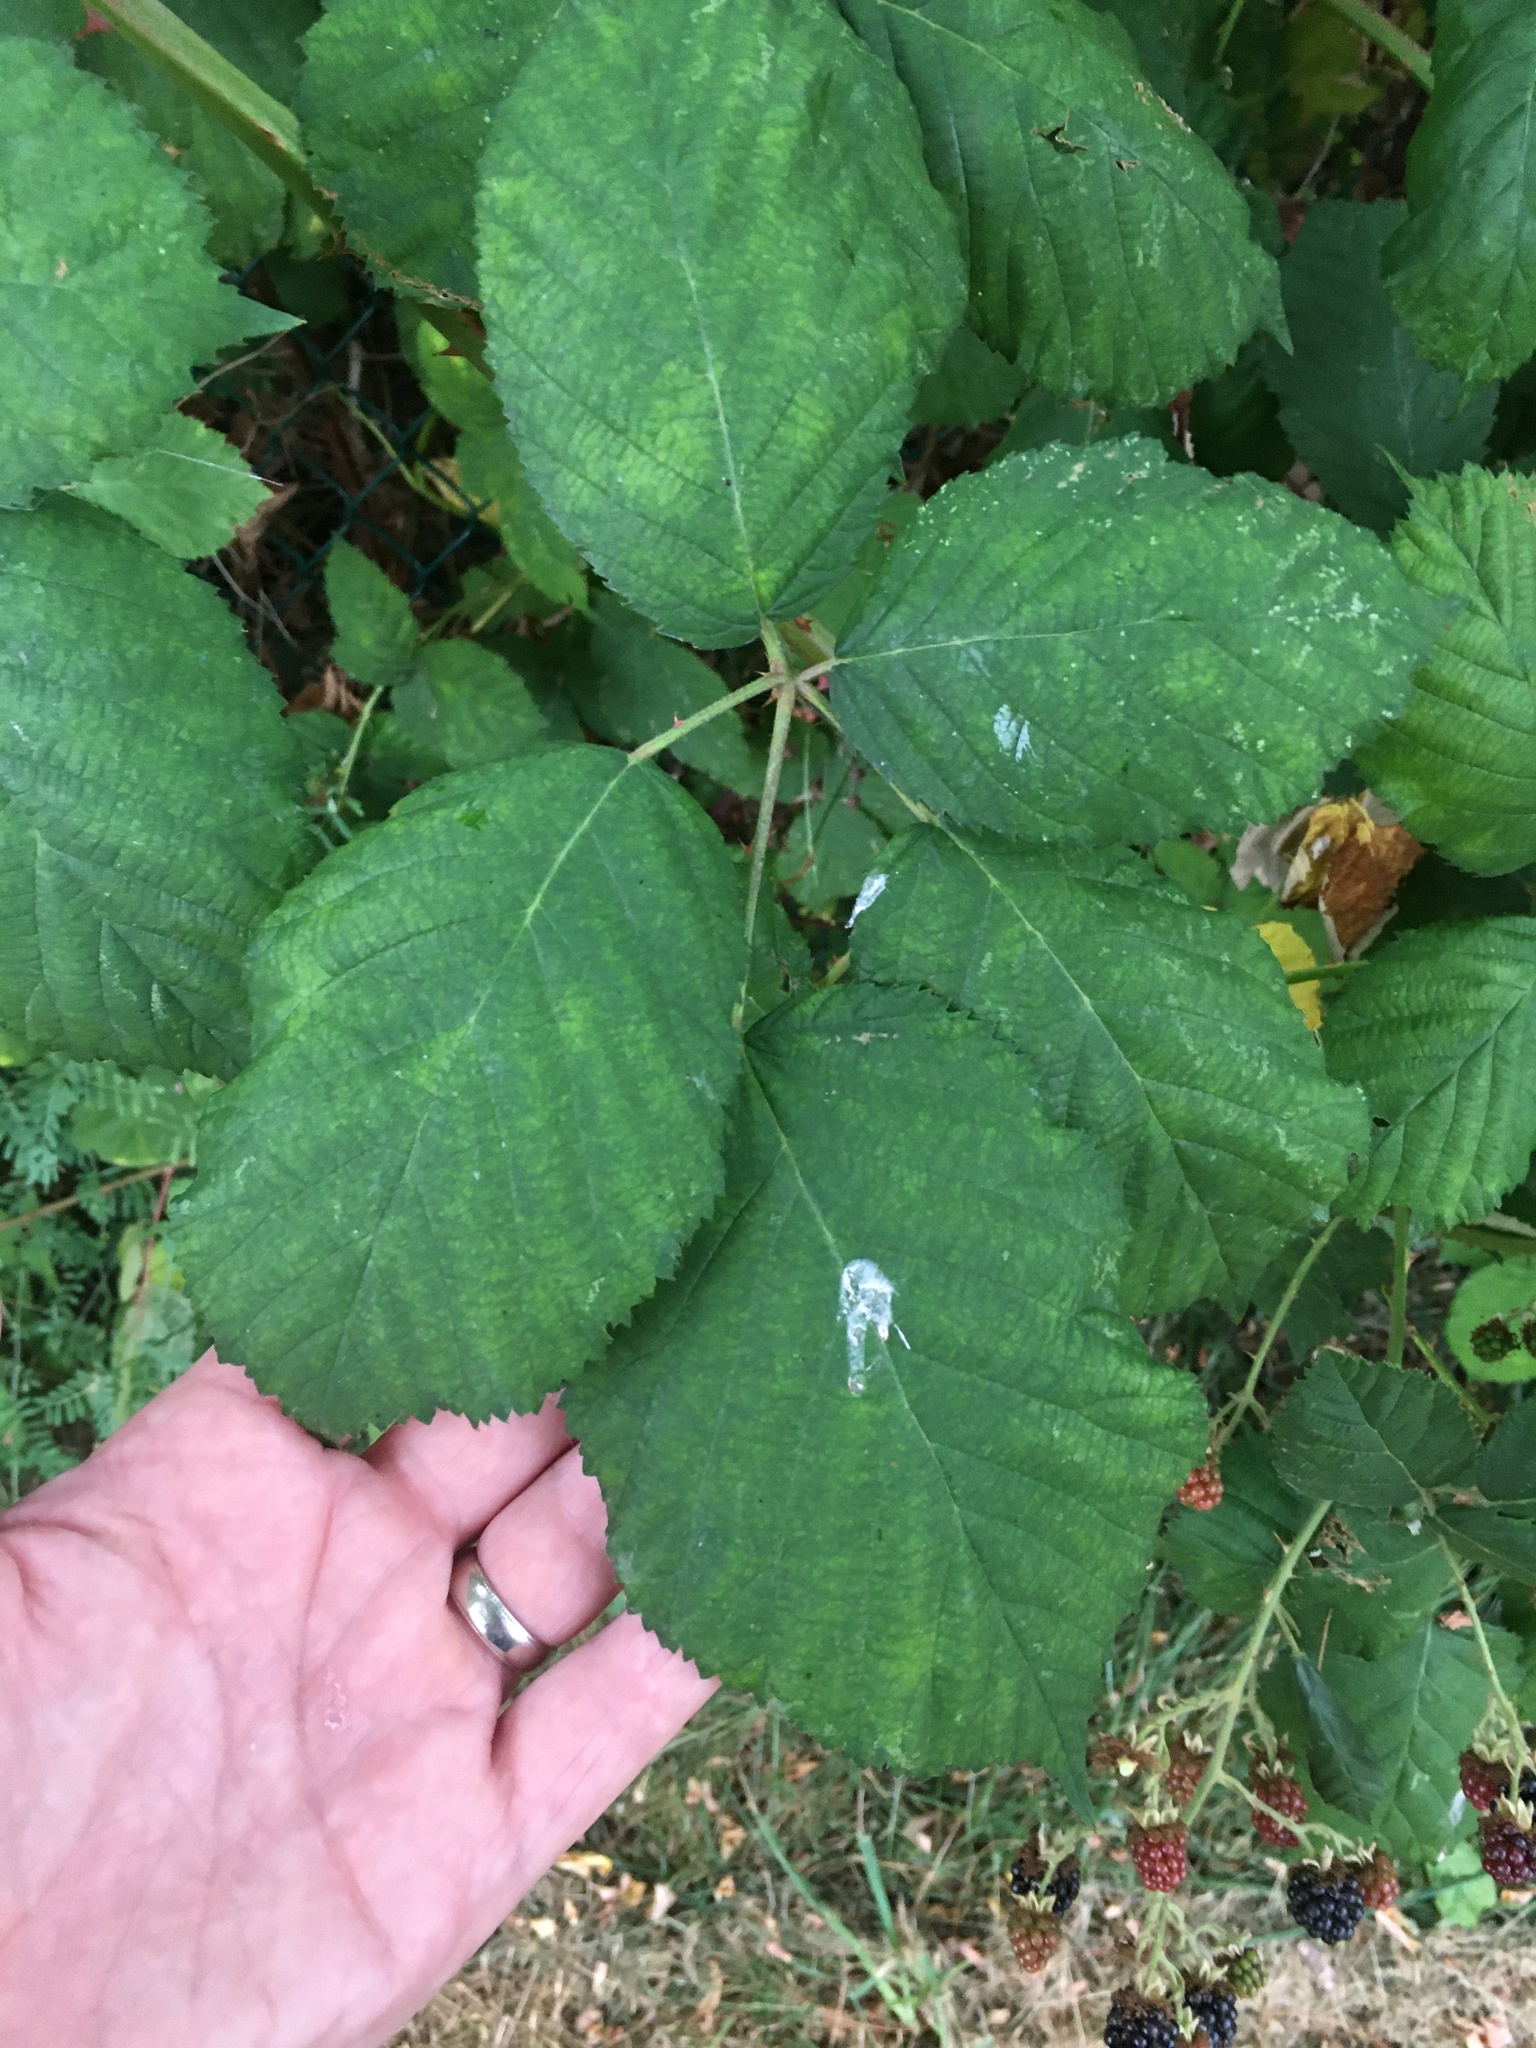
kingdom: Plantae
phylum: Tracheophyta
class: Magnoliopsida
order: Rosales
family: Rosaceae
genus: Rubus
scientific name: Rubus bifrons
